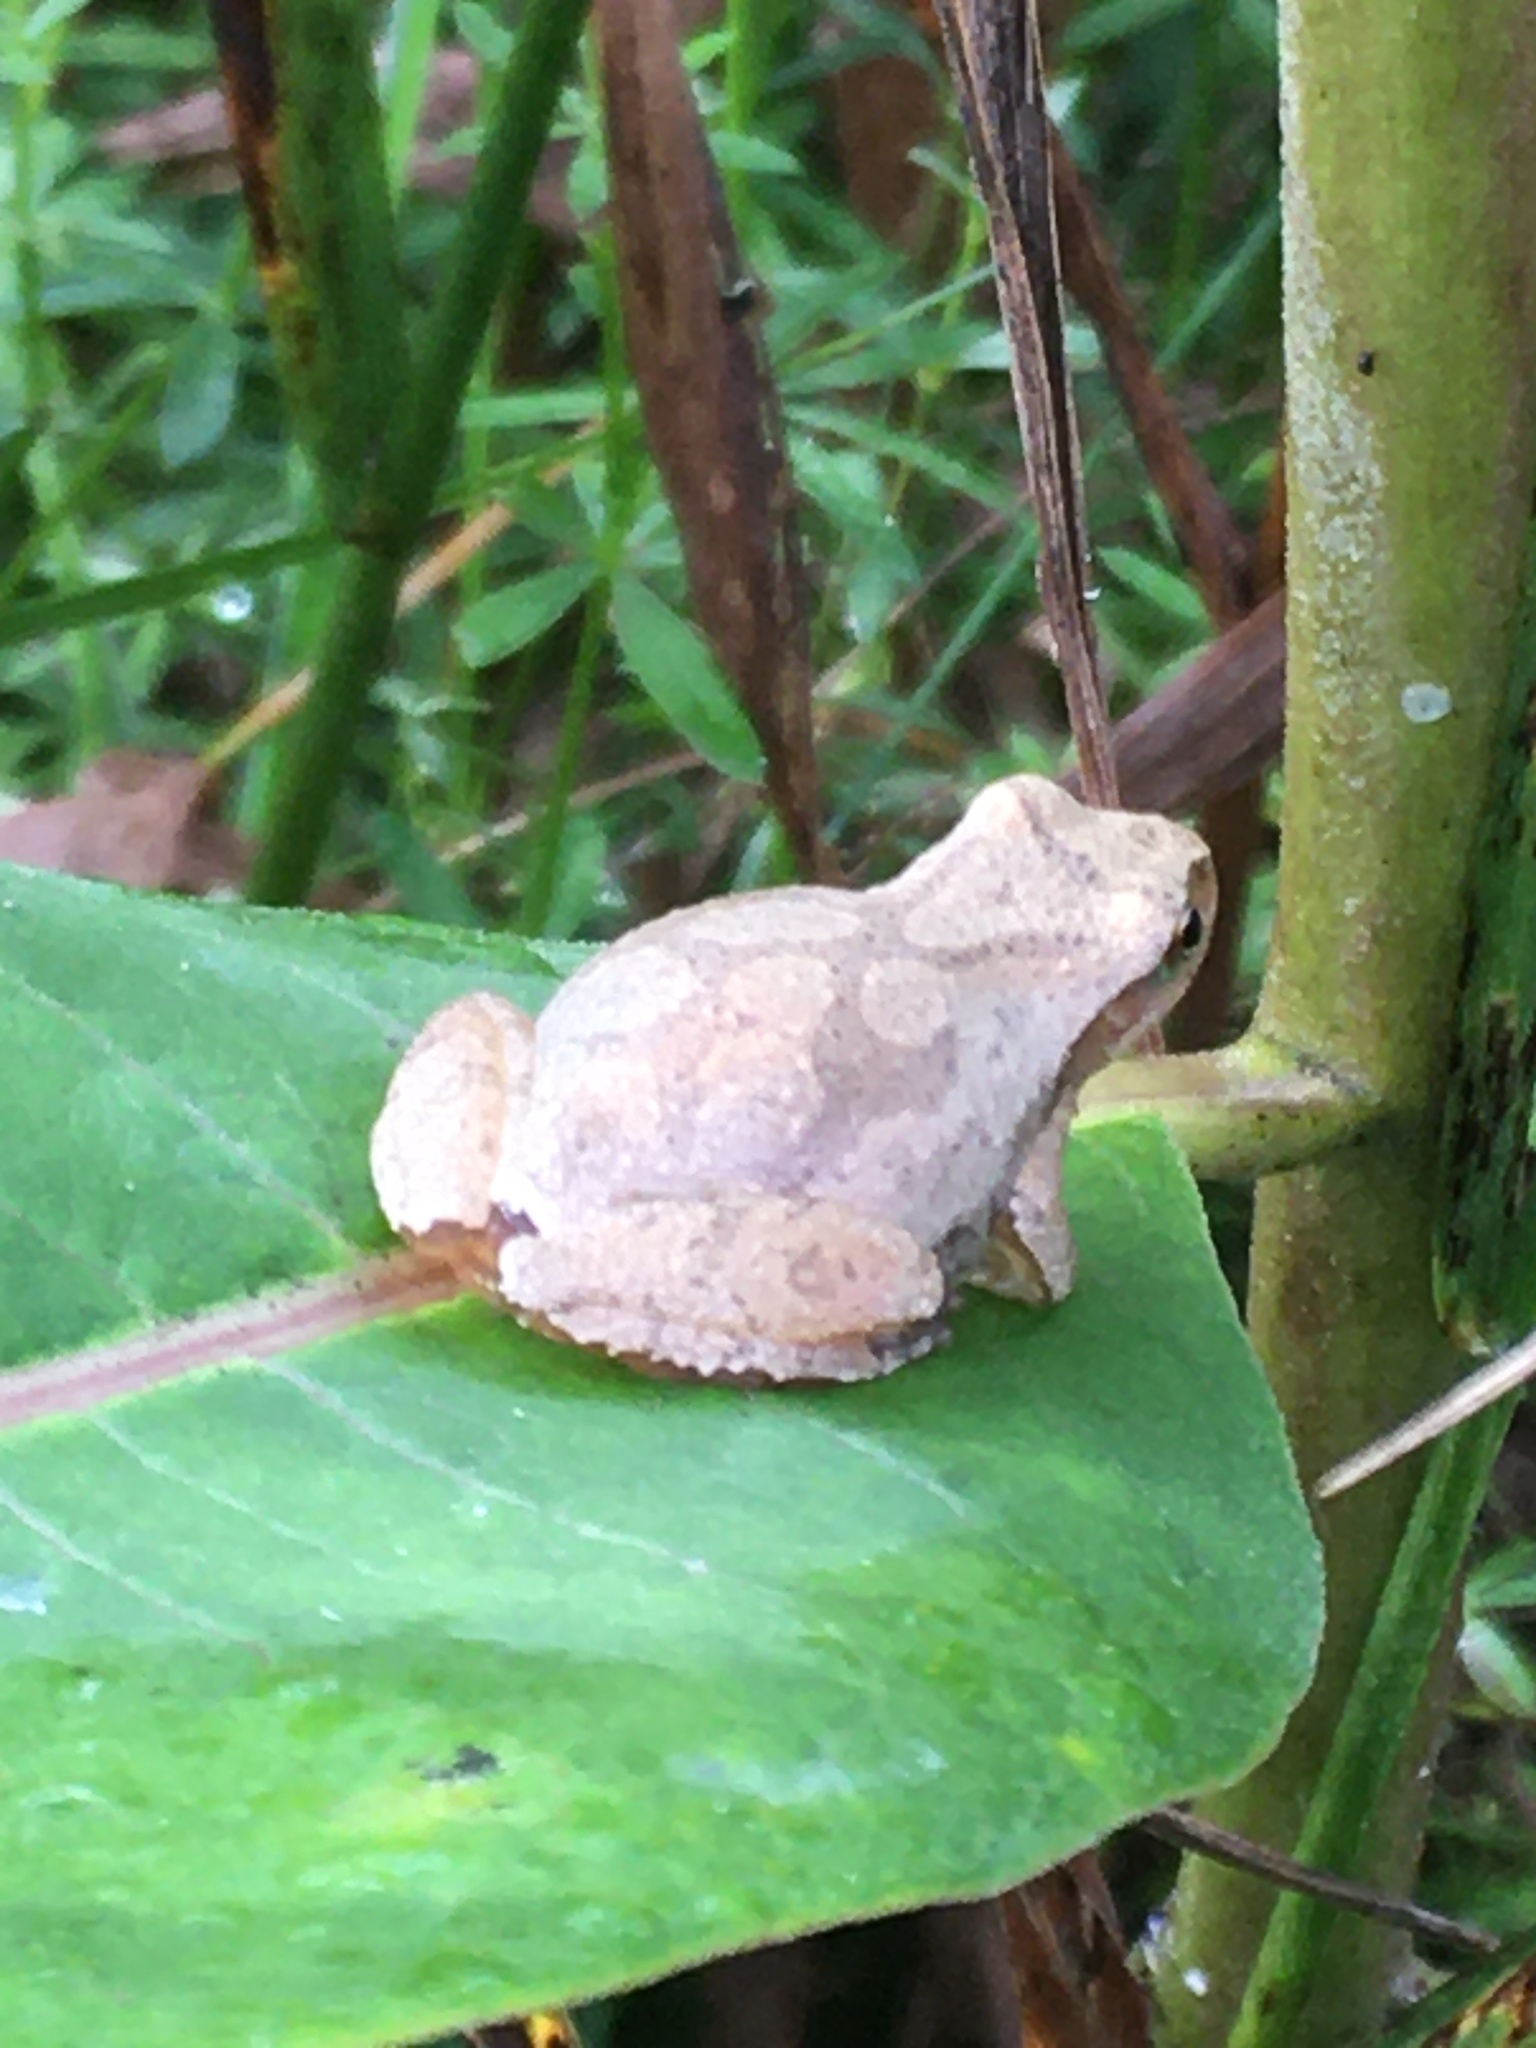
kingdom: Animalia
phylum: Chordata
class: Amphibia
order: Anura
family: Hylidae
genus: Pseudacris
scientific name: Pseudacris crucifer
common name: Spring peeper
